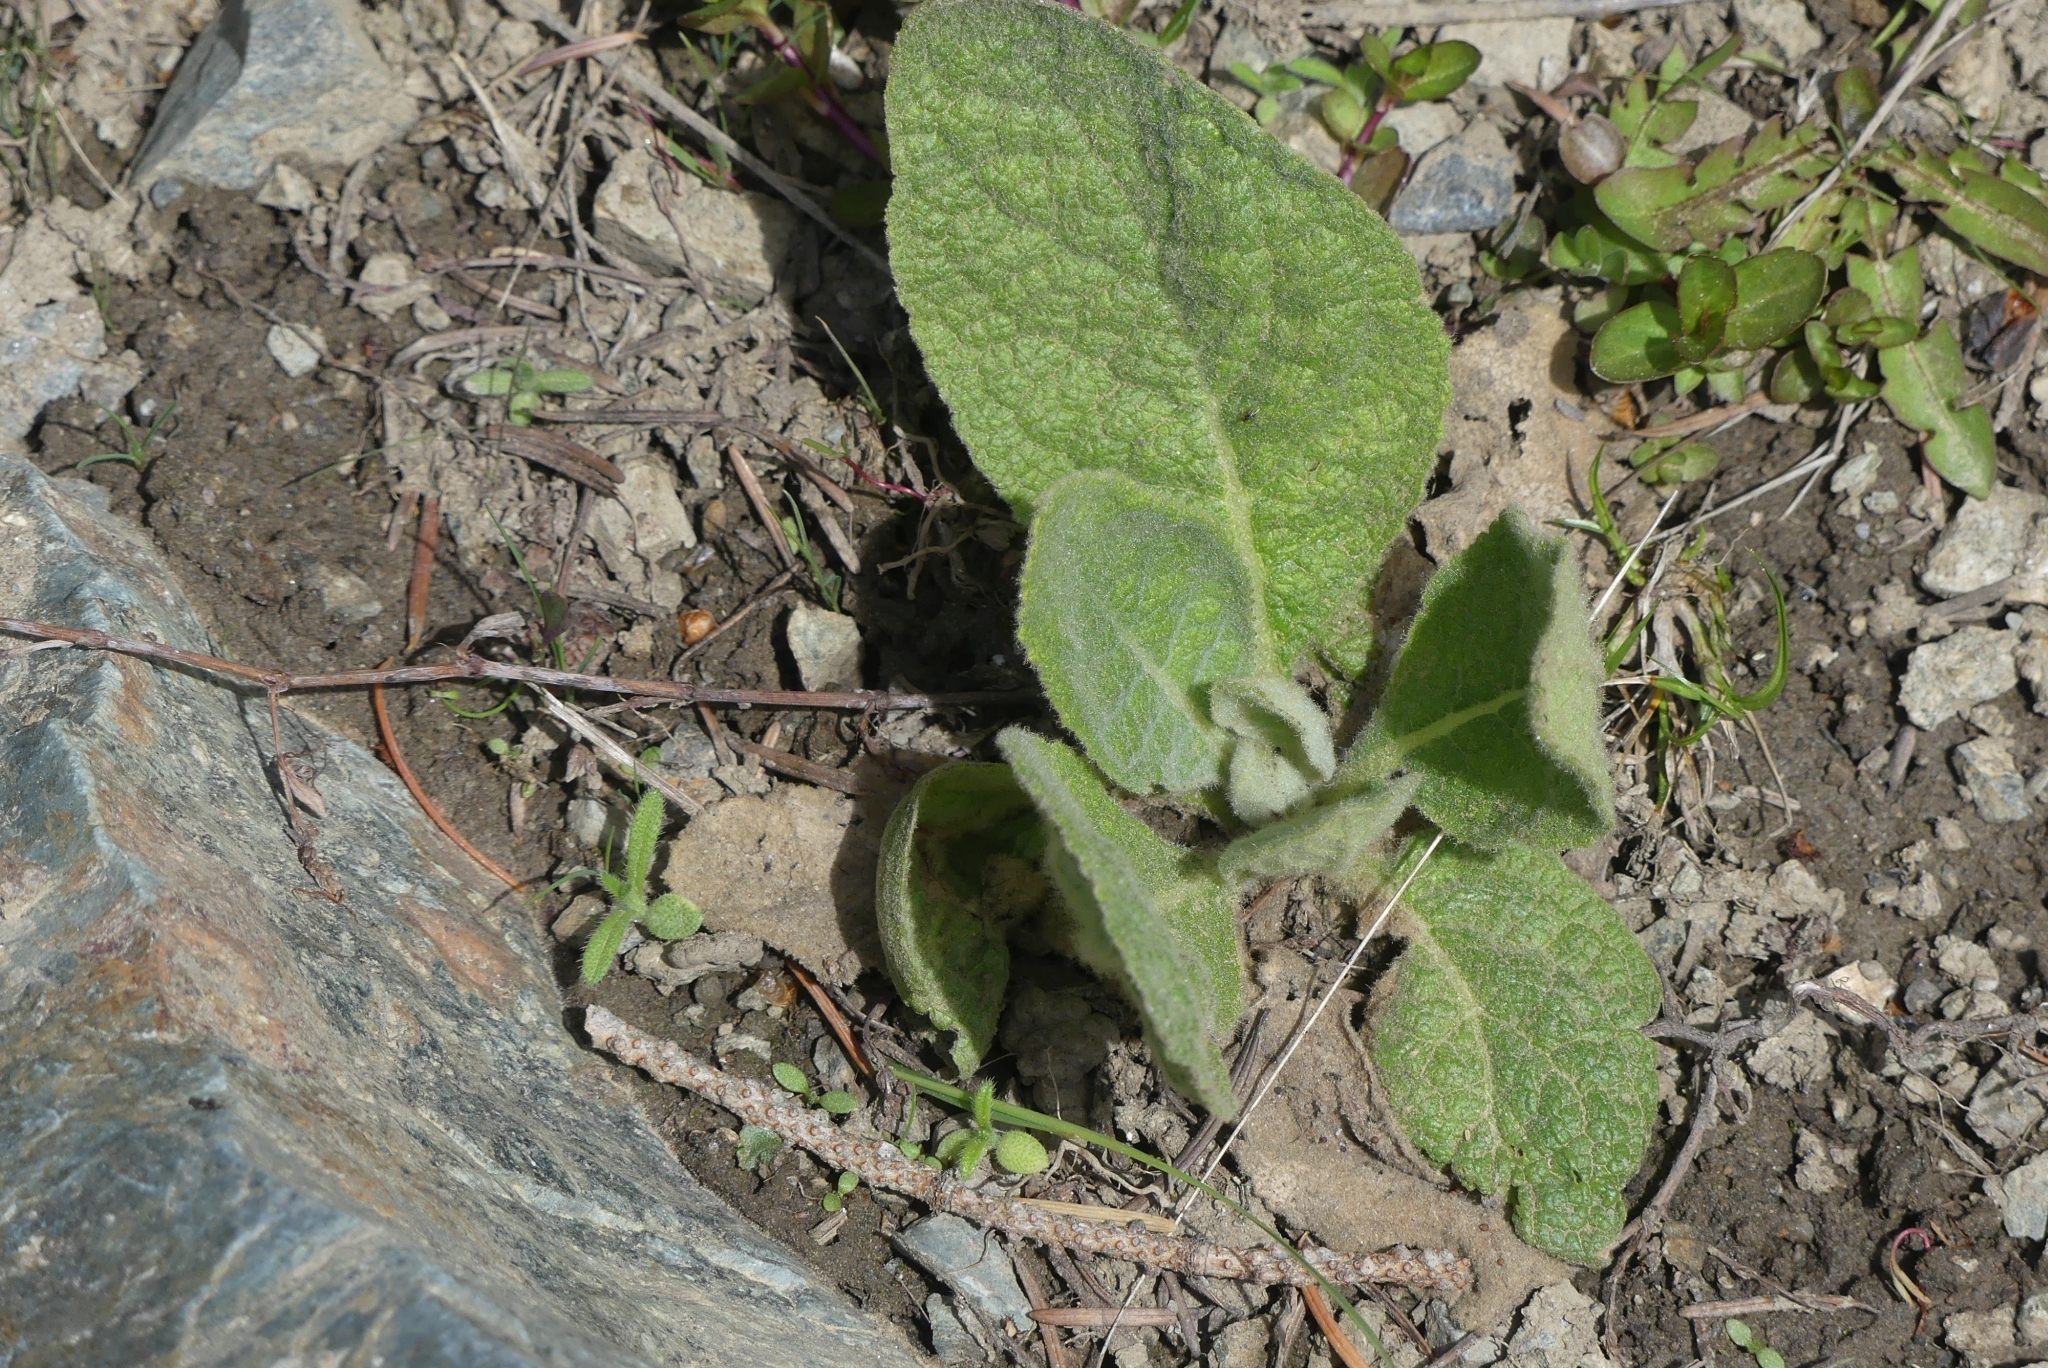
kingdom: Plantae
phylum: Tracheophyta
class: Magnoliopsida
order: Lamiales
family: Scrophulariaceae
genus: Verbascum
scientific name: Verbascum thapsus
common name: Common mullein
